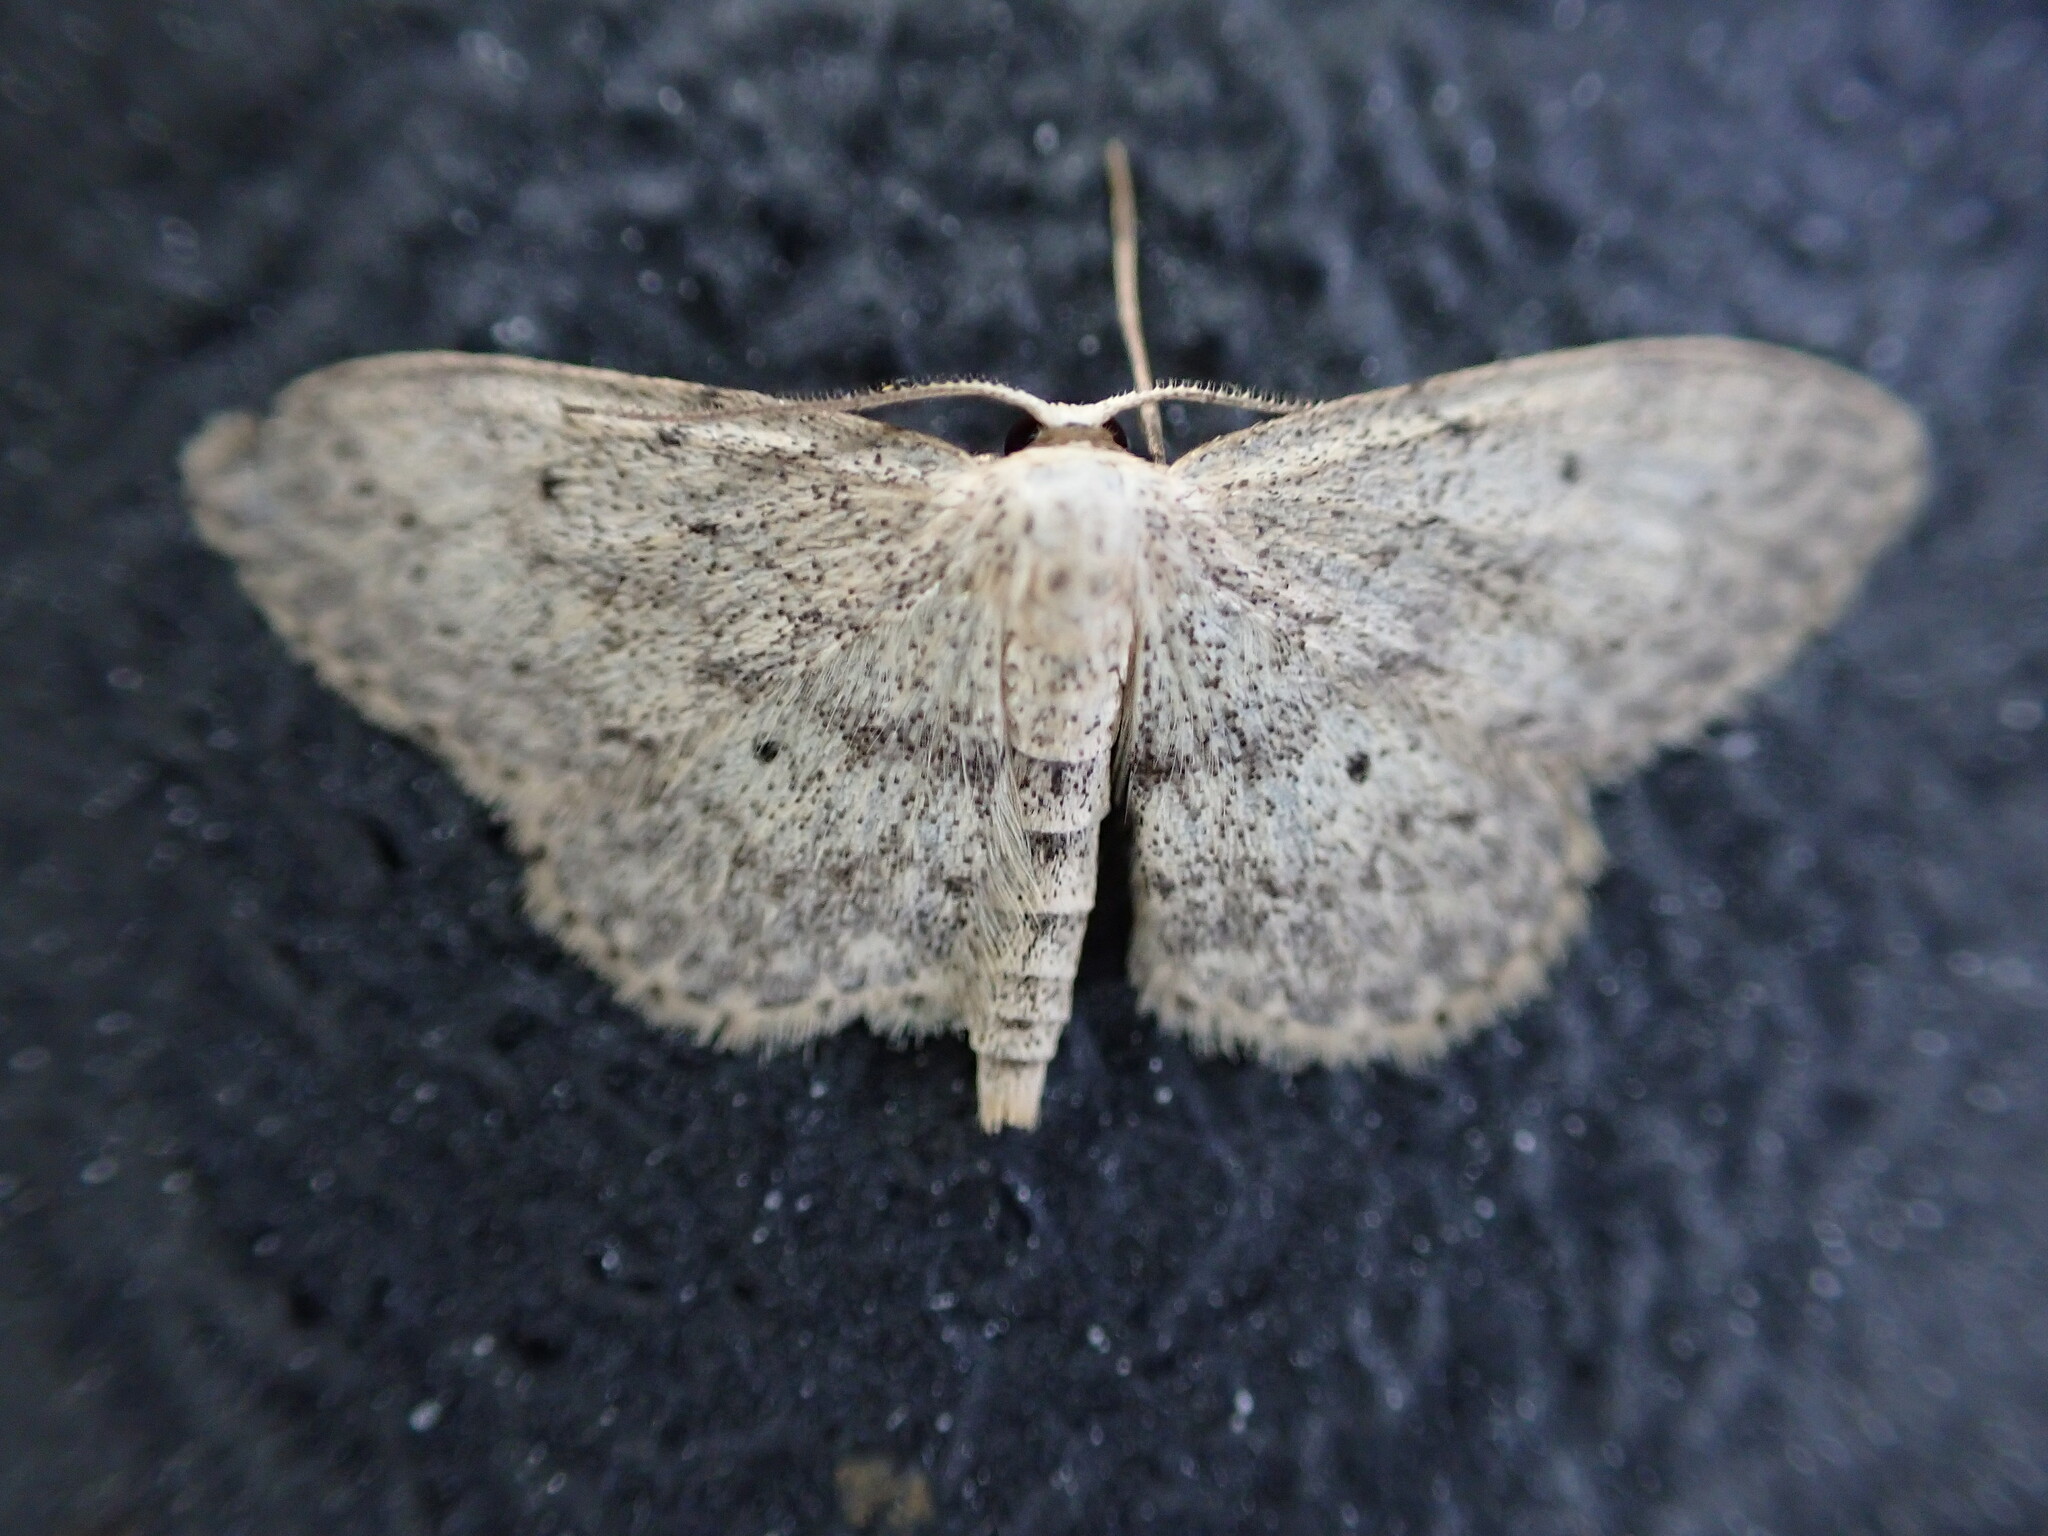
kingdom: Animalia
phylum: Arthropoda
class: Insecta
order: Lepidoptera
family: Geometridae
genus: Idaea
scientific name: Idaea seriata
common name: Small dusty wave
